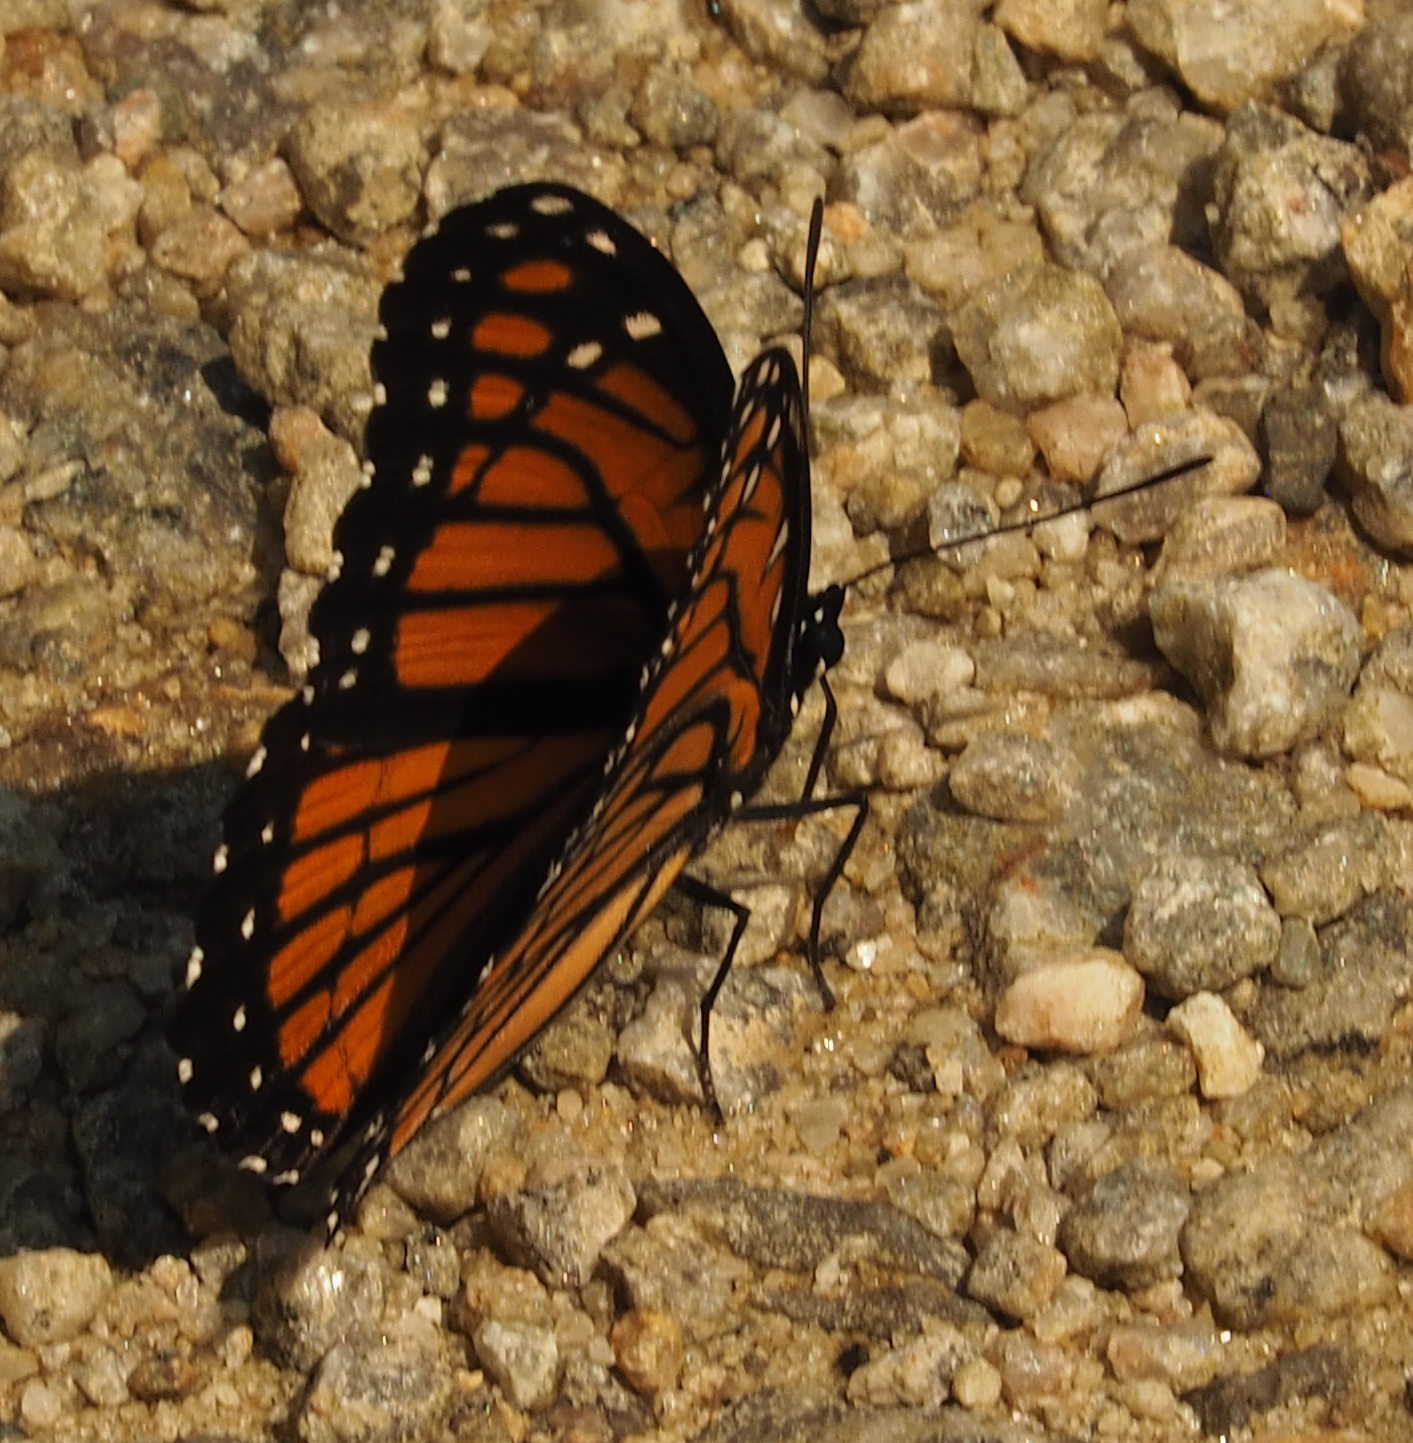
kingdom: Animalia
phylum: Arthropoda
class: Insecta
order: Lepidoptera
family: Nymphalidae
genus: Limenitis
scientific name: Limenitis archippus
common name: Viceroy
